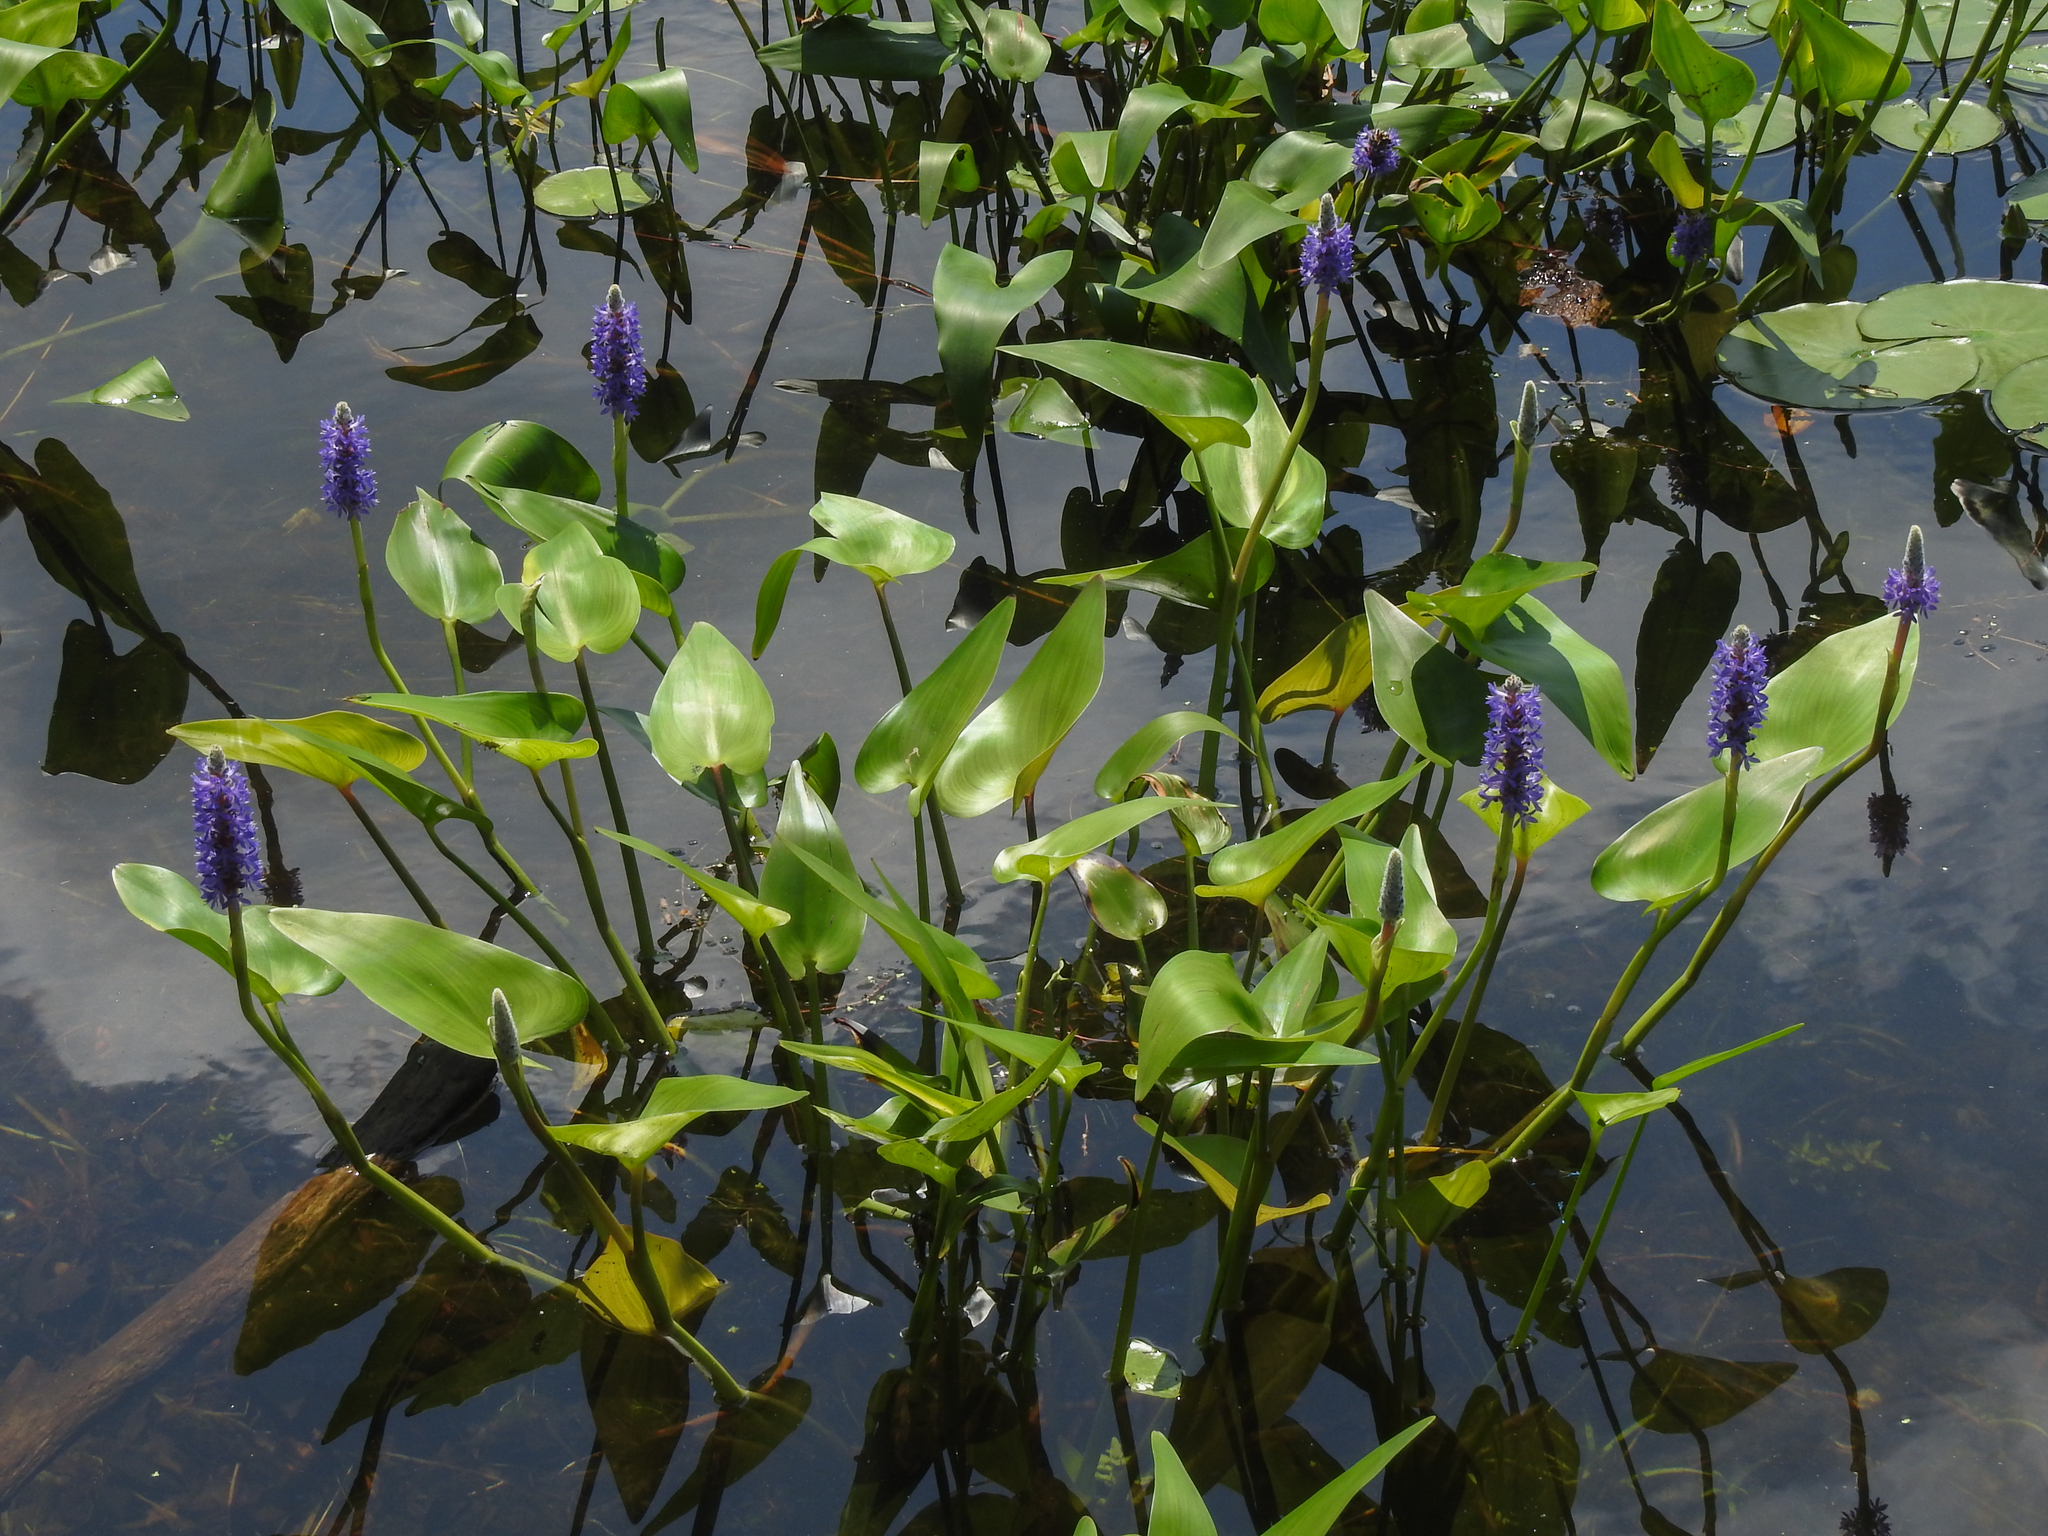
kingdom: Plantae
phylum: Tracheophyta
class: Liliopsida
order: Commelinales
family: Pontederiaceae
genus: Pontederia
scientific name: Pontederia cordata
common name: Pickerelweed
